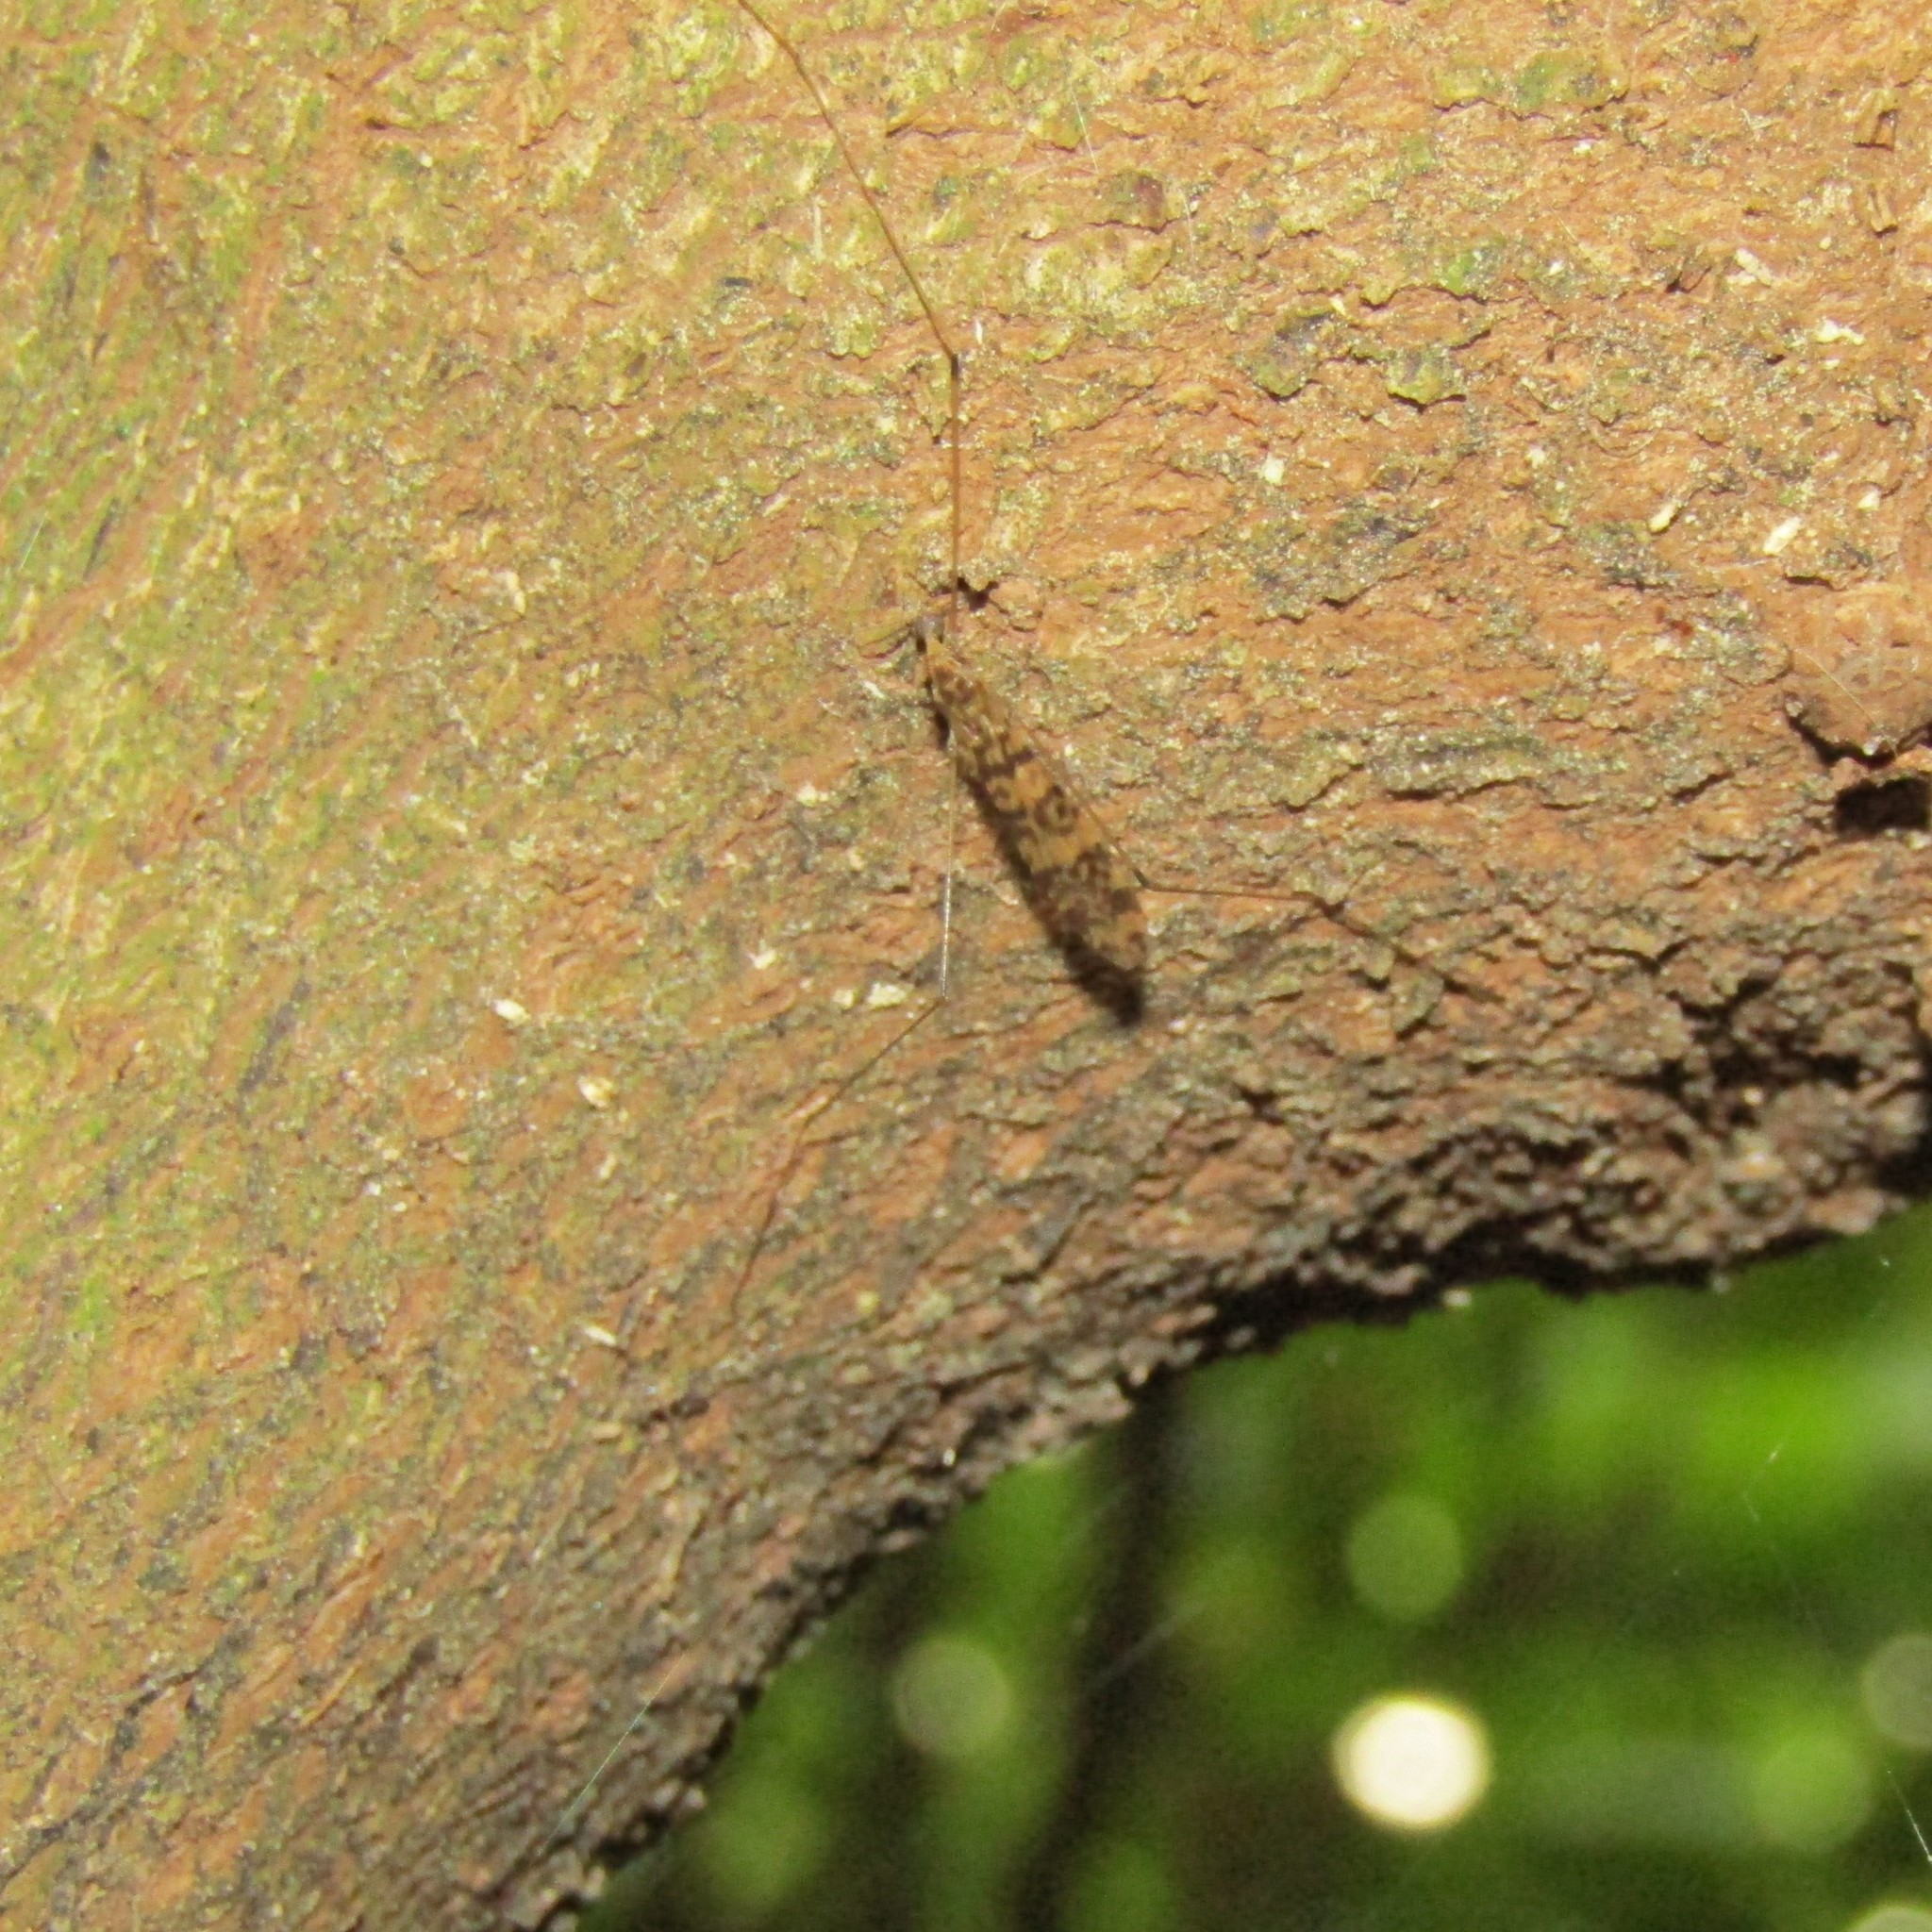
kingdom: Animalia
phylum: Arthropoda
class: Insecta
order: Diptera
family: Limoniidae
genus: Discobola
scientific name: Discobola gibberina
